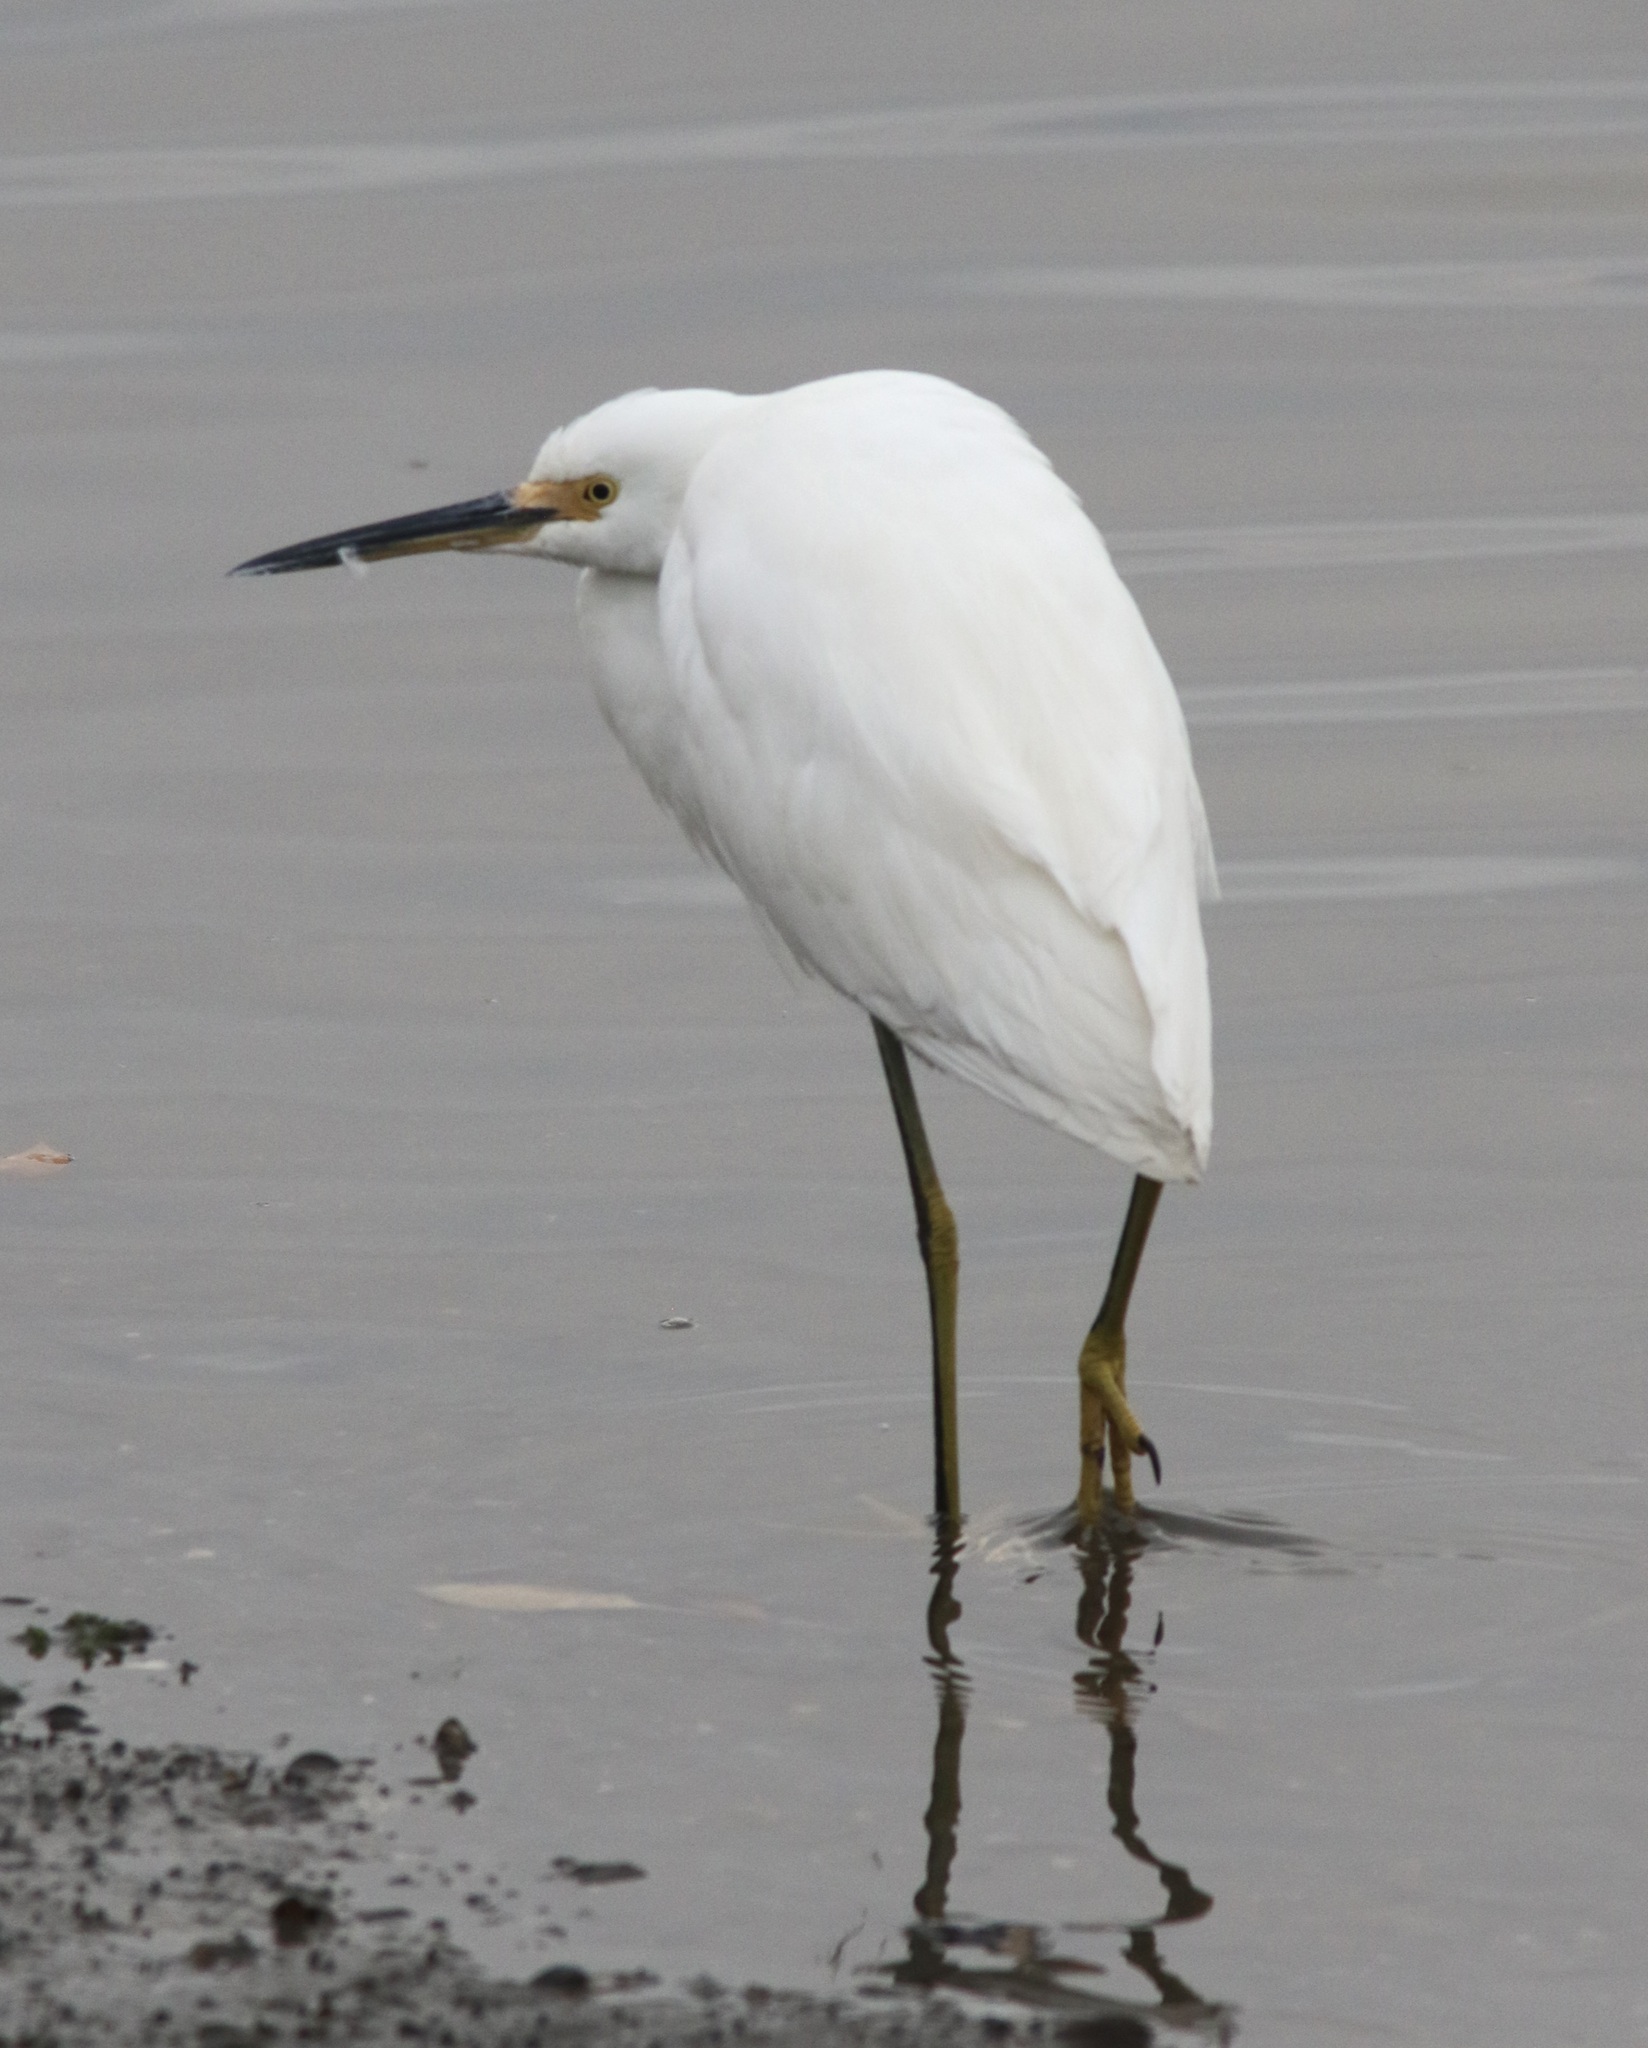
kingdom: Animalia
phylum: Chordata
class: Aves
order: Pelecaniformes
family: Ardeidae
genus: Egretta
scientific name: Egretta thula
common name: Snowy egret
